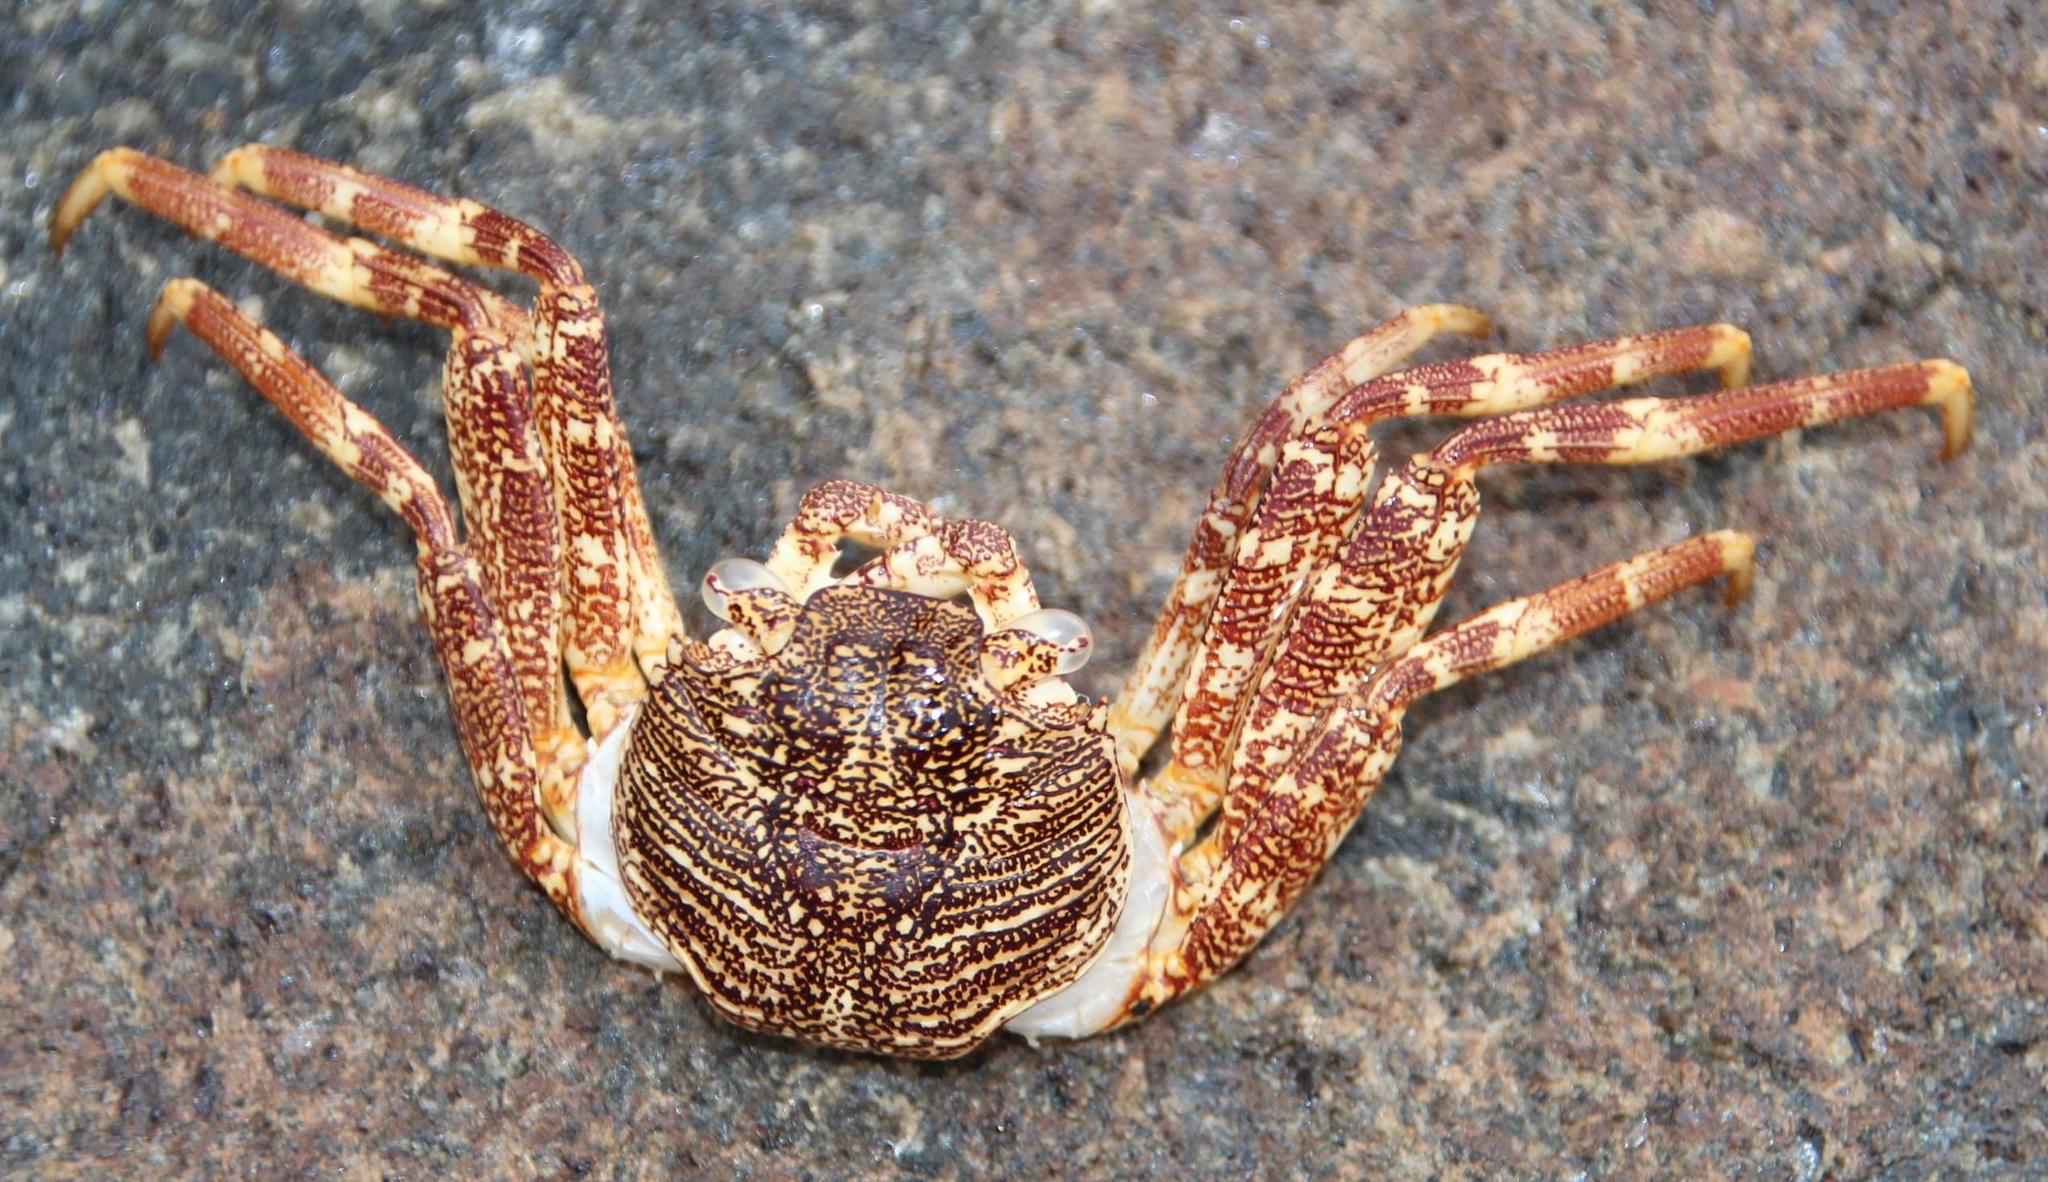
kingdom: Animalia
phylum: Arthropoda
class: Malacostraca
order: Decapoda
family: Grapsidae
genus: Grapsus
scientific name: Grapsus tenuicrustatus
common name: Natal lightfoot crab
